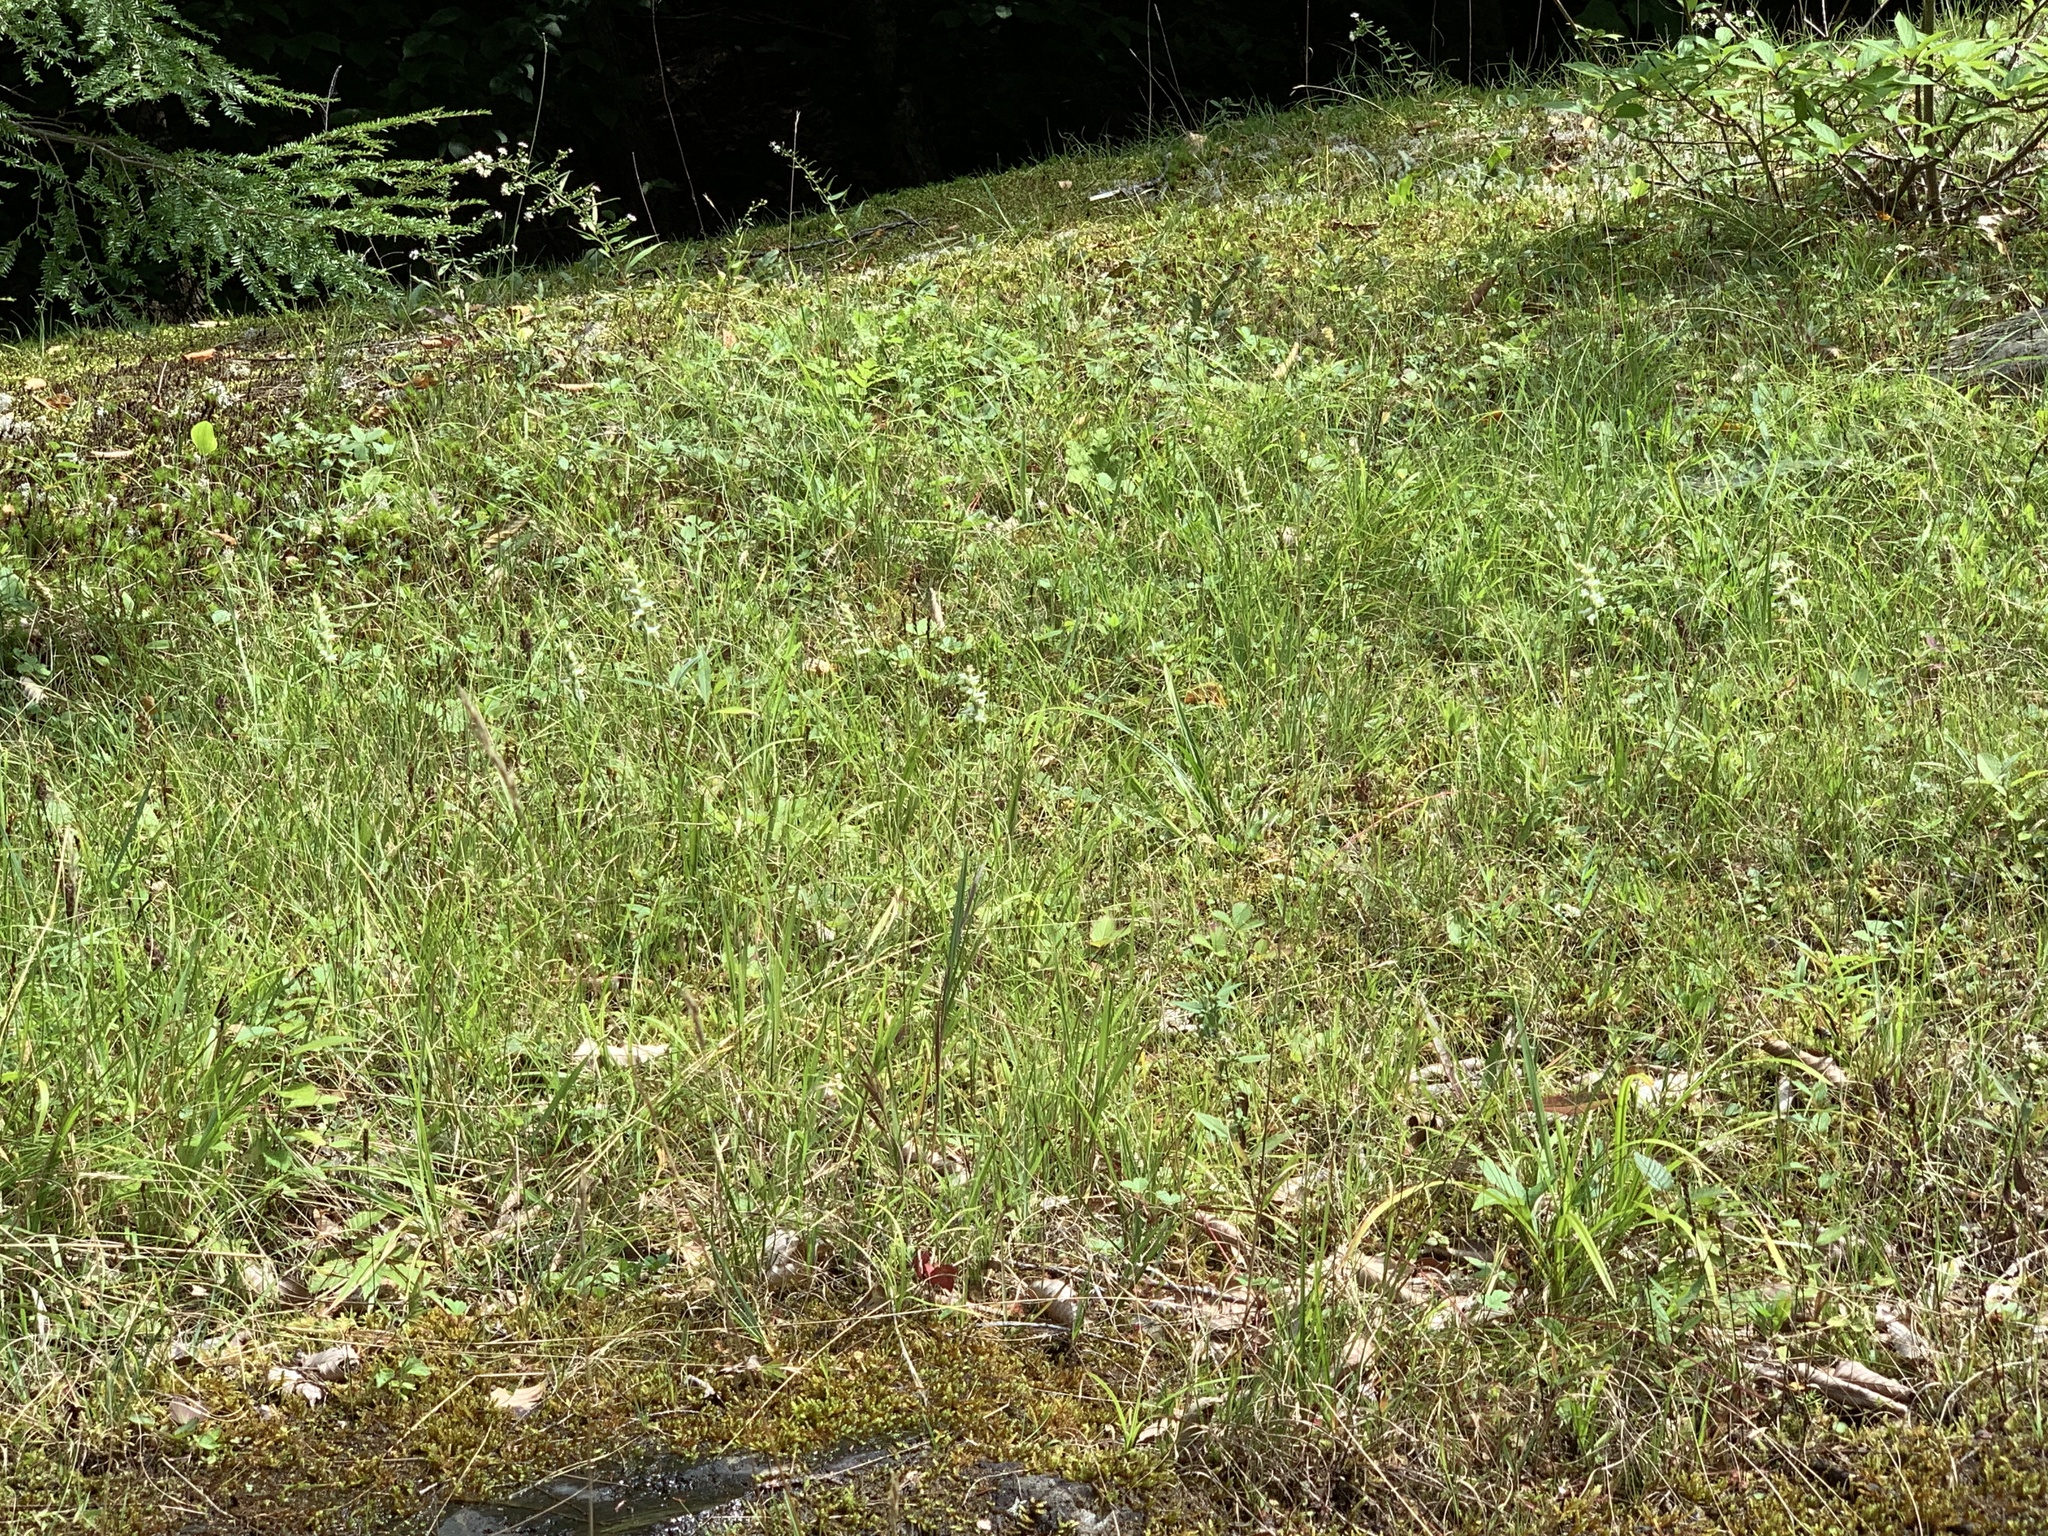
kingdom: Plantae
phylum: Tracheophyta
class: Liliopsida
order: Asparagales
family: Orchidaceae
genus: Spiranthes
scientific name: Spiranthes incurva
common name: Sphinx ladies'-tresses
